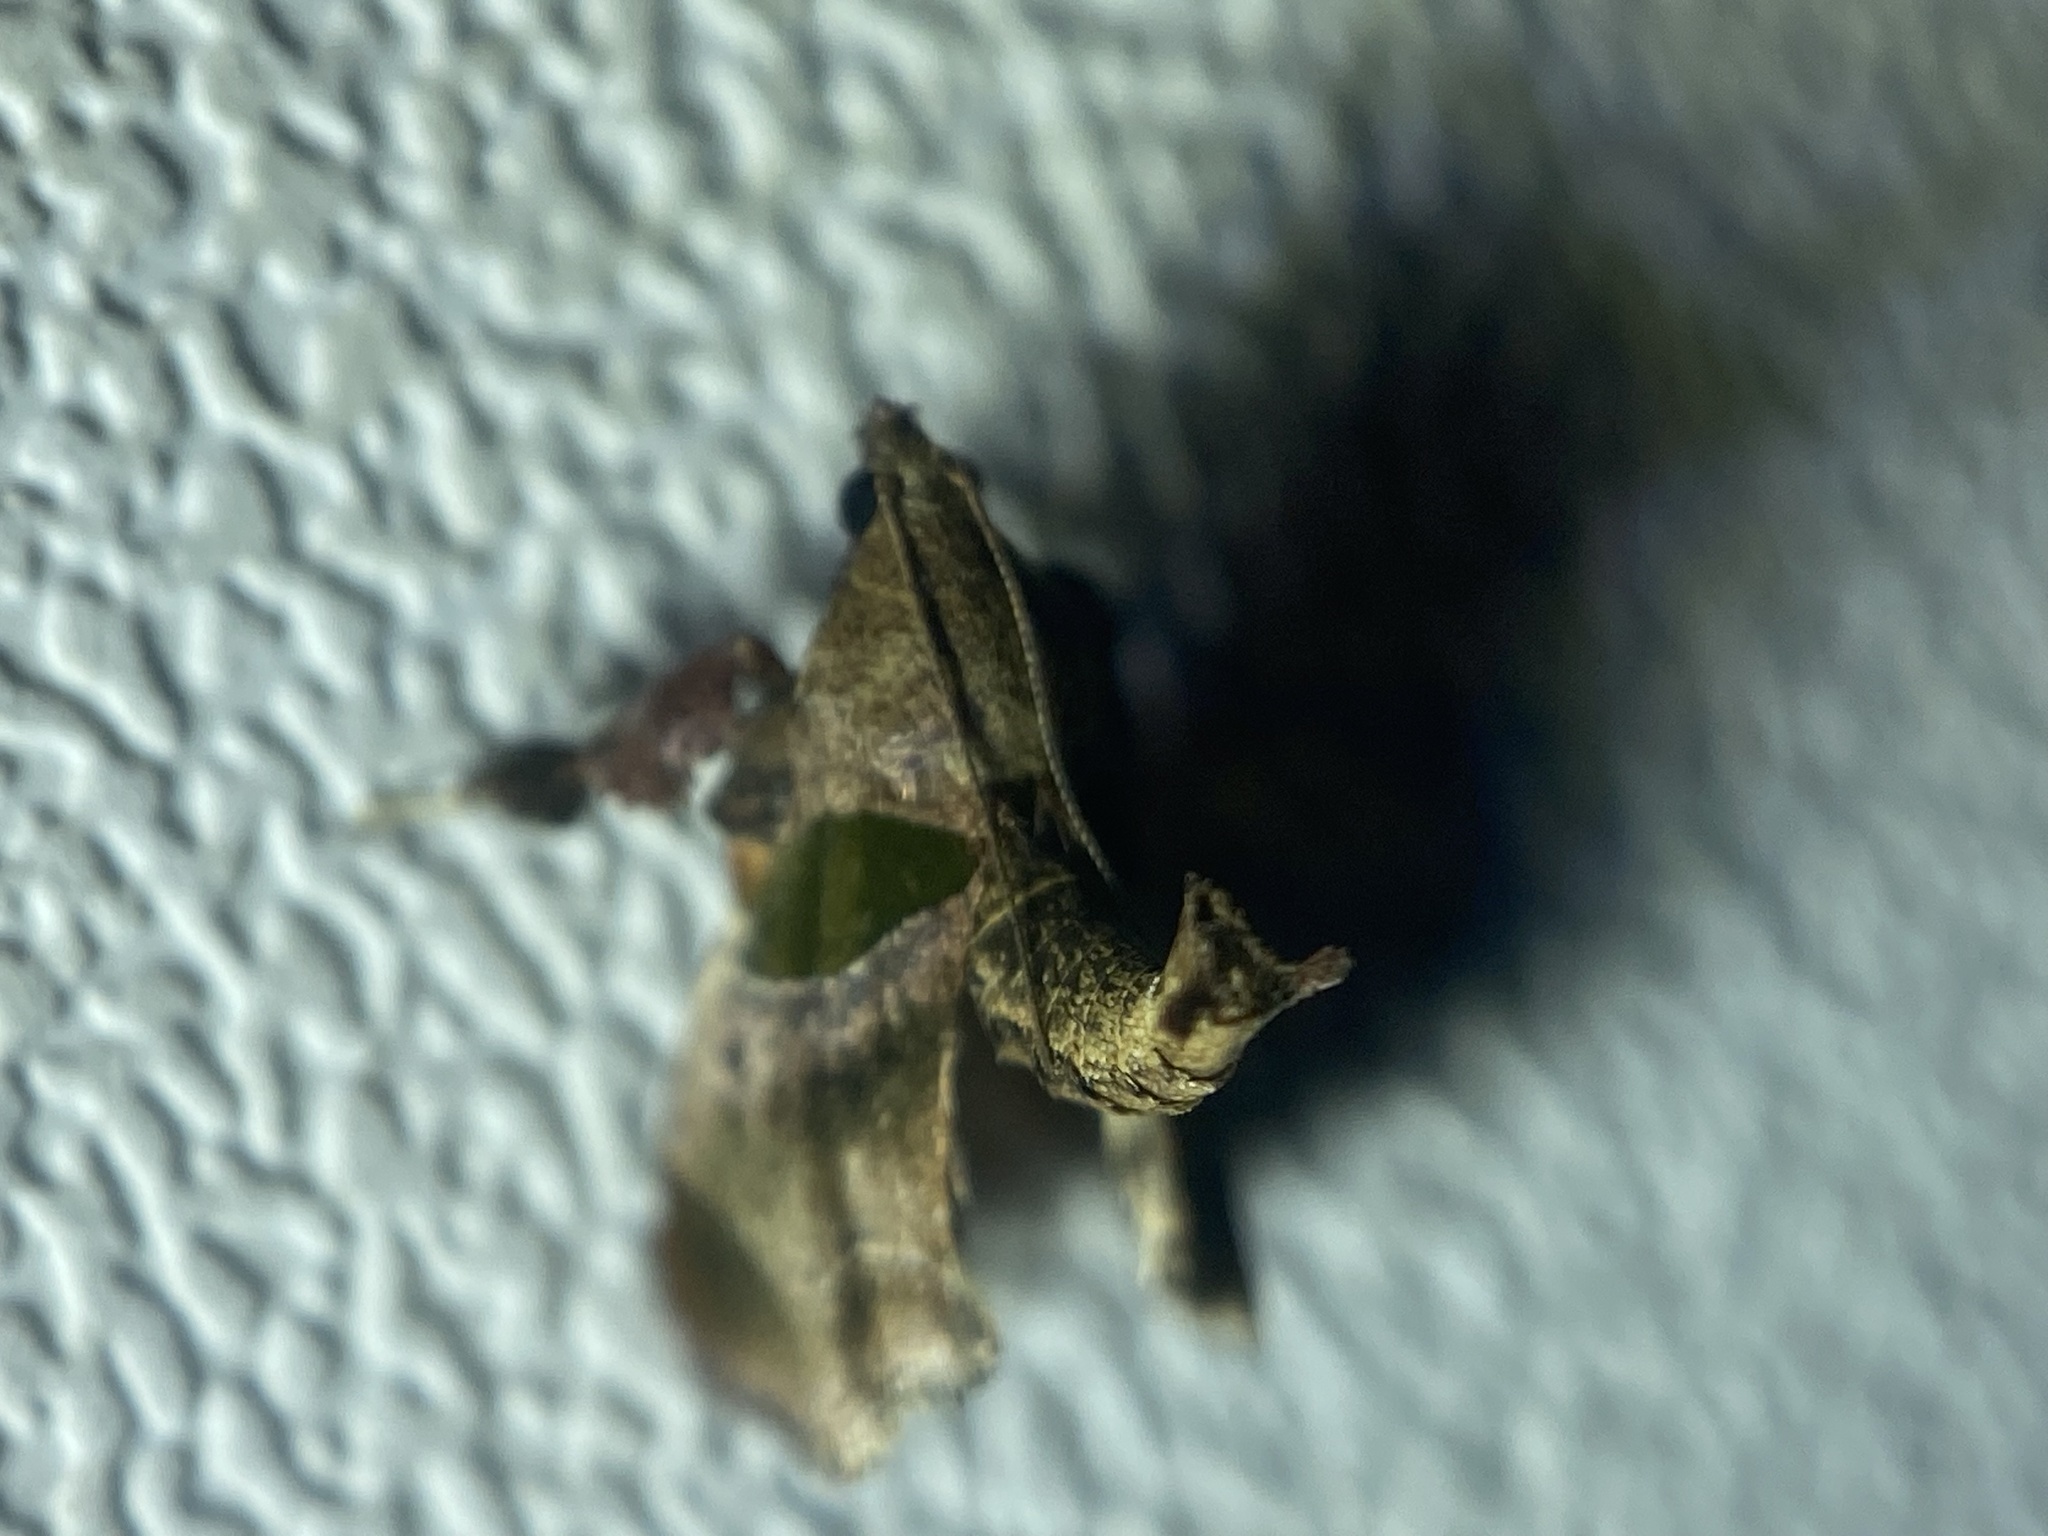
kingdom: Animalia
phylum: Arthropoda
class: Insecta
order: Lepidoptera
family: Pyralidae
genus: Tosale
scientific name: Tosale oviplagalis
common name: Dimorphic tosale moth
